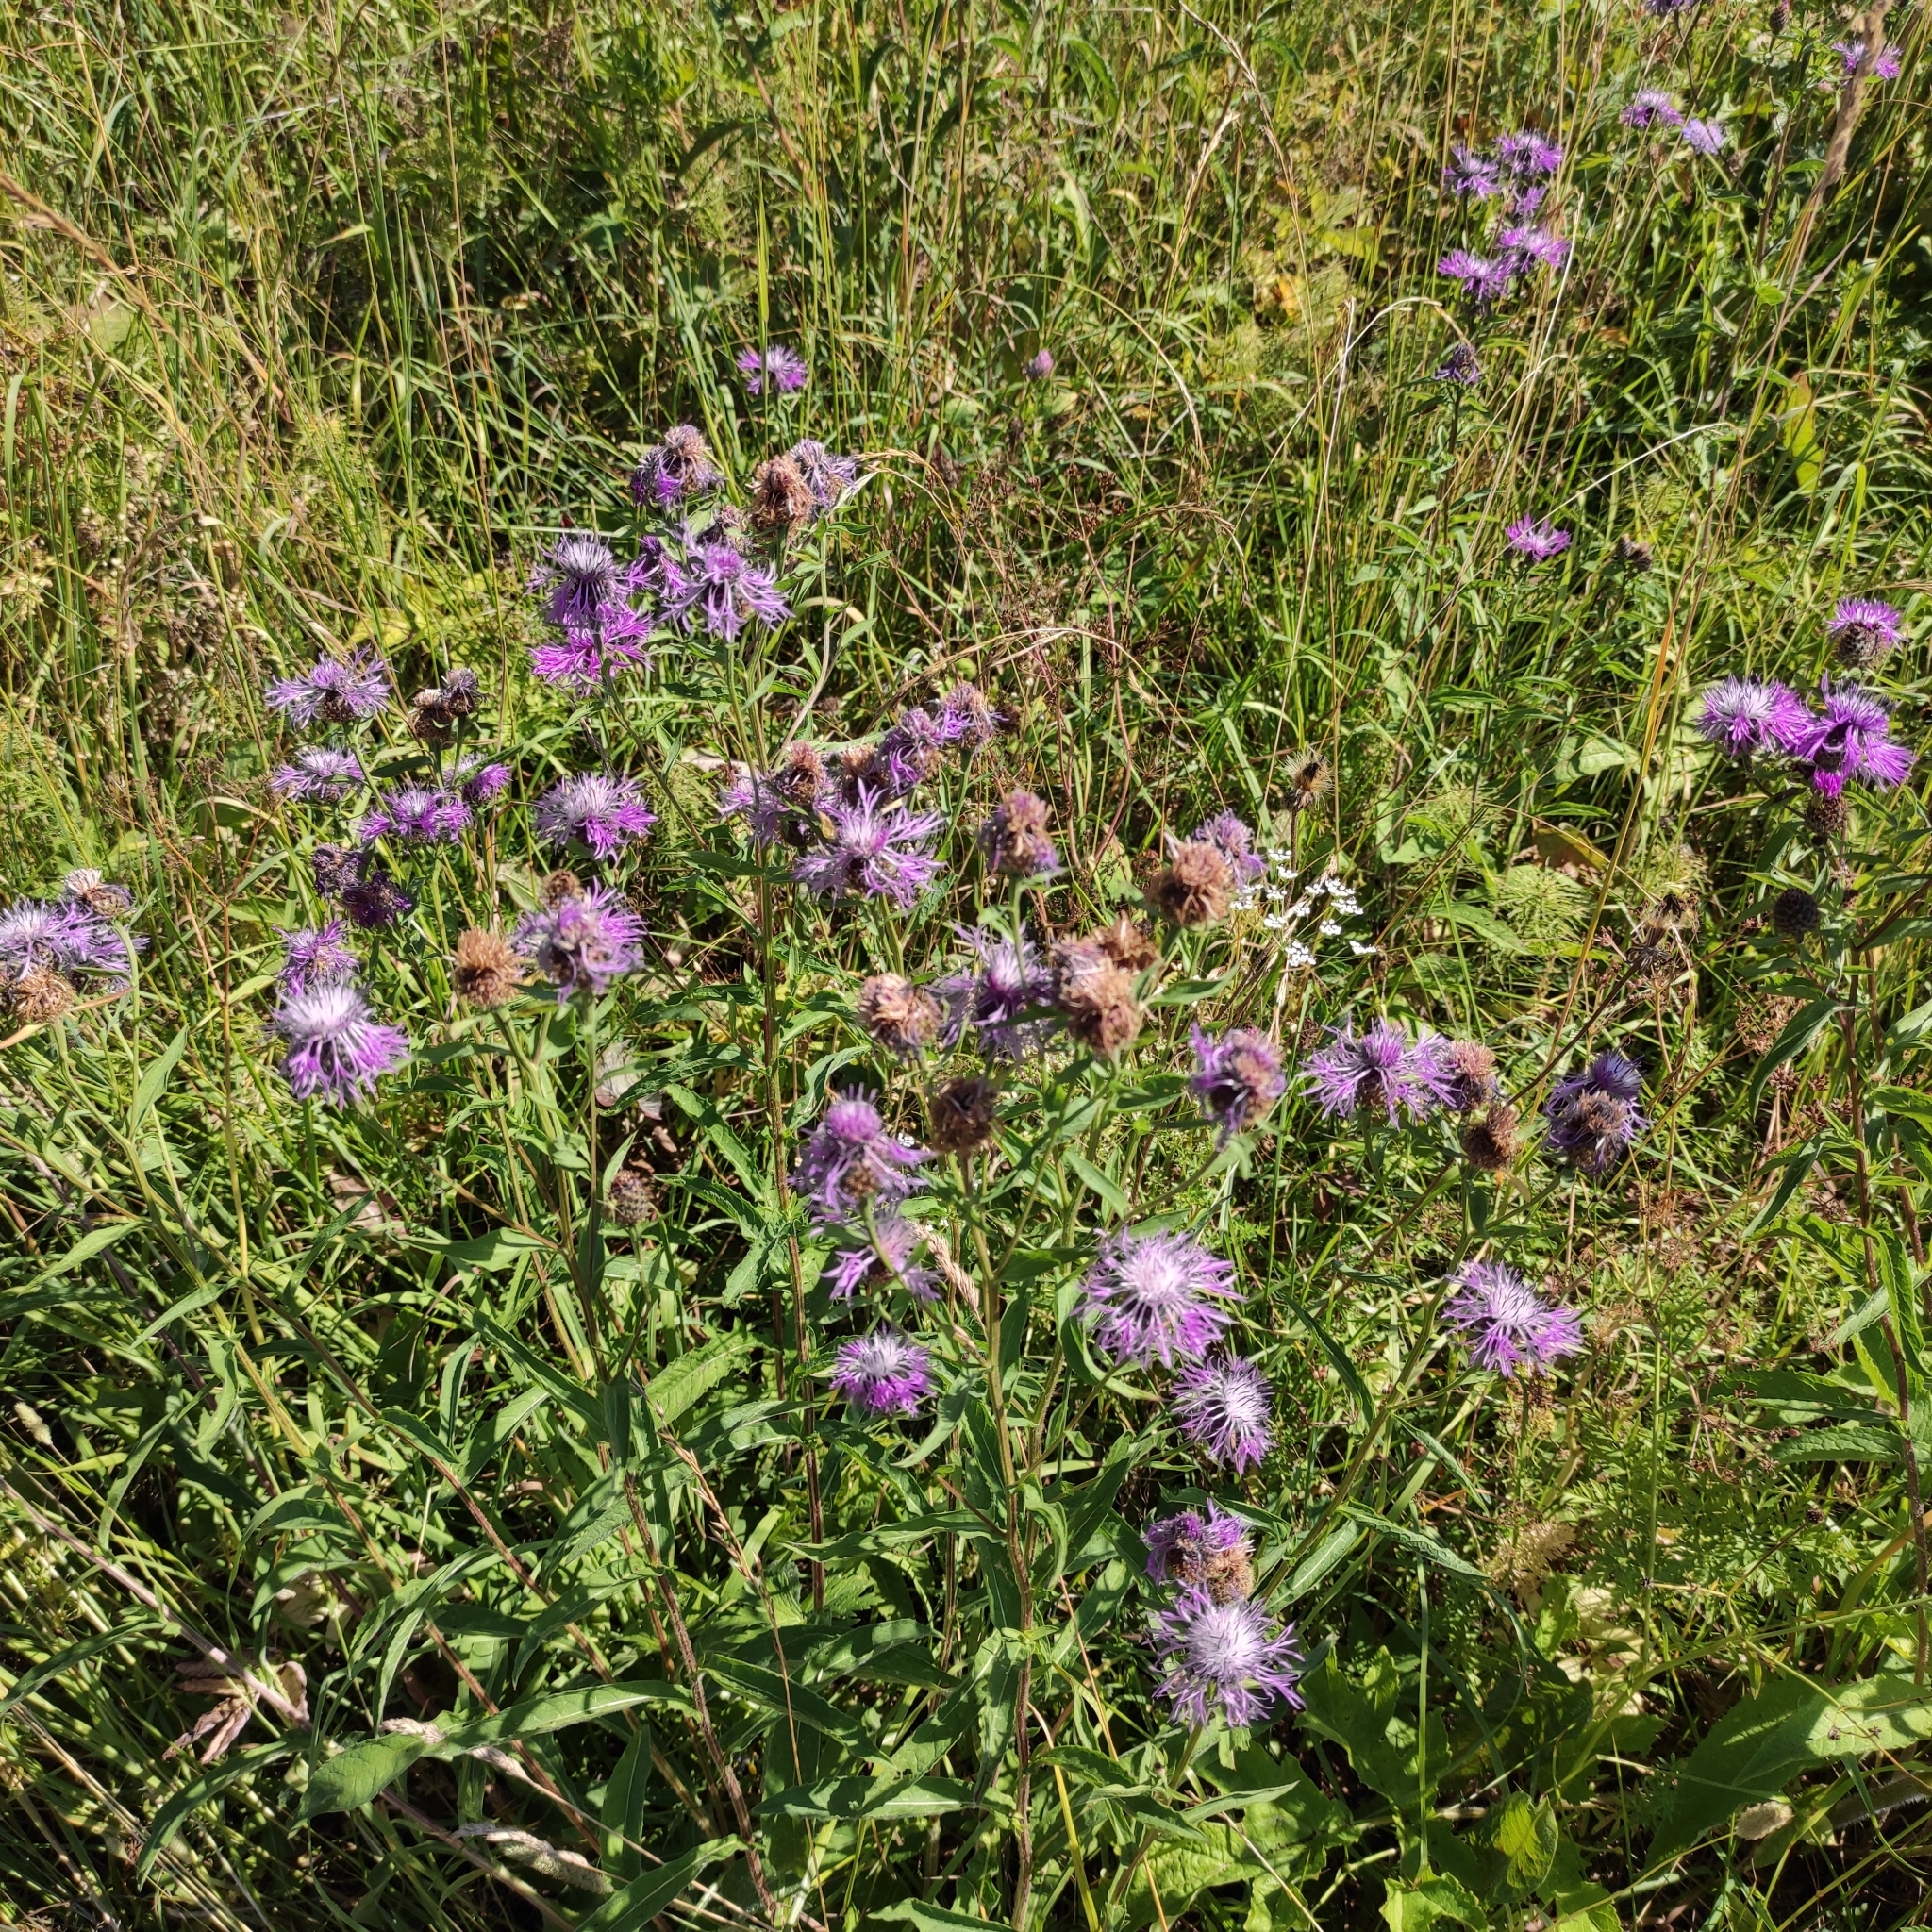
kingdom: Plantae
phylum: Tracheophyta
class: Magnoliopsida
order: Asterales
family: Asteraceae
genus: Centaurea
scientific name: Centaurea phrygia
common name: Wig knapweed
